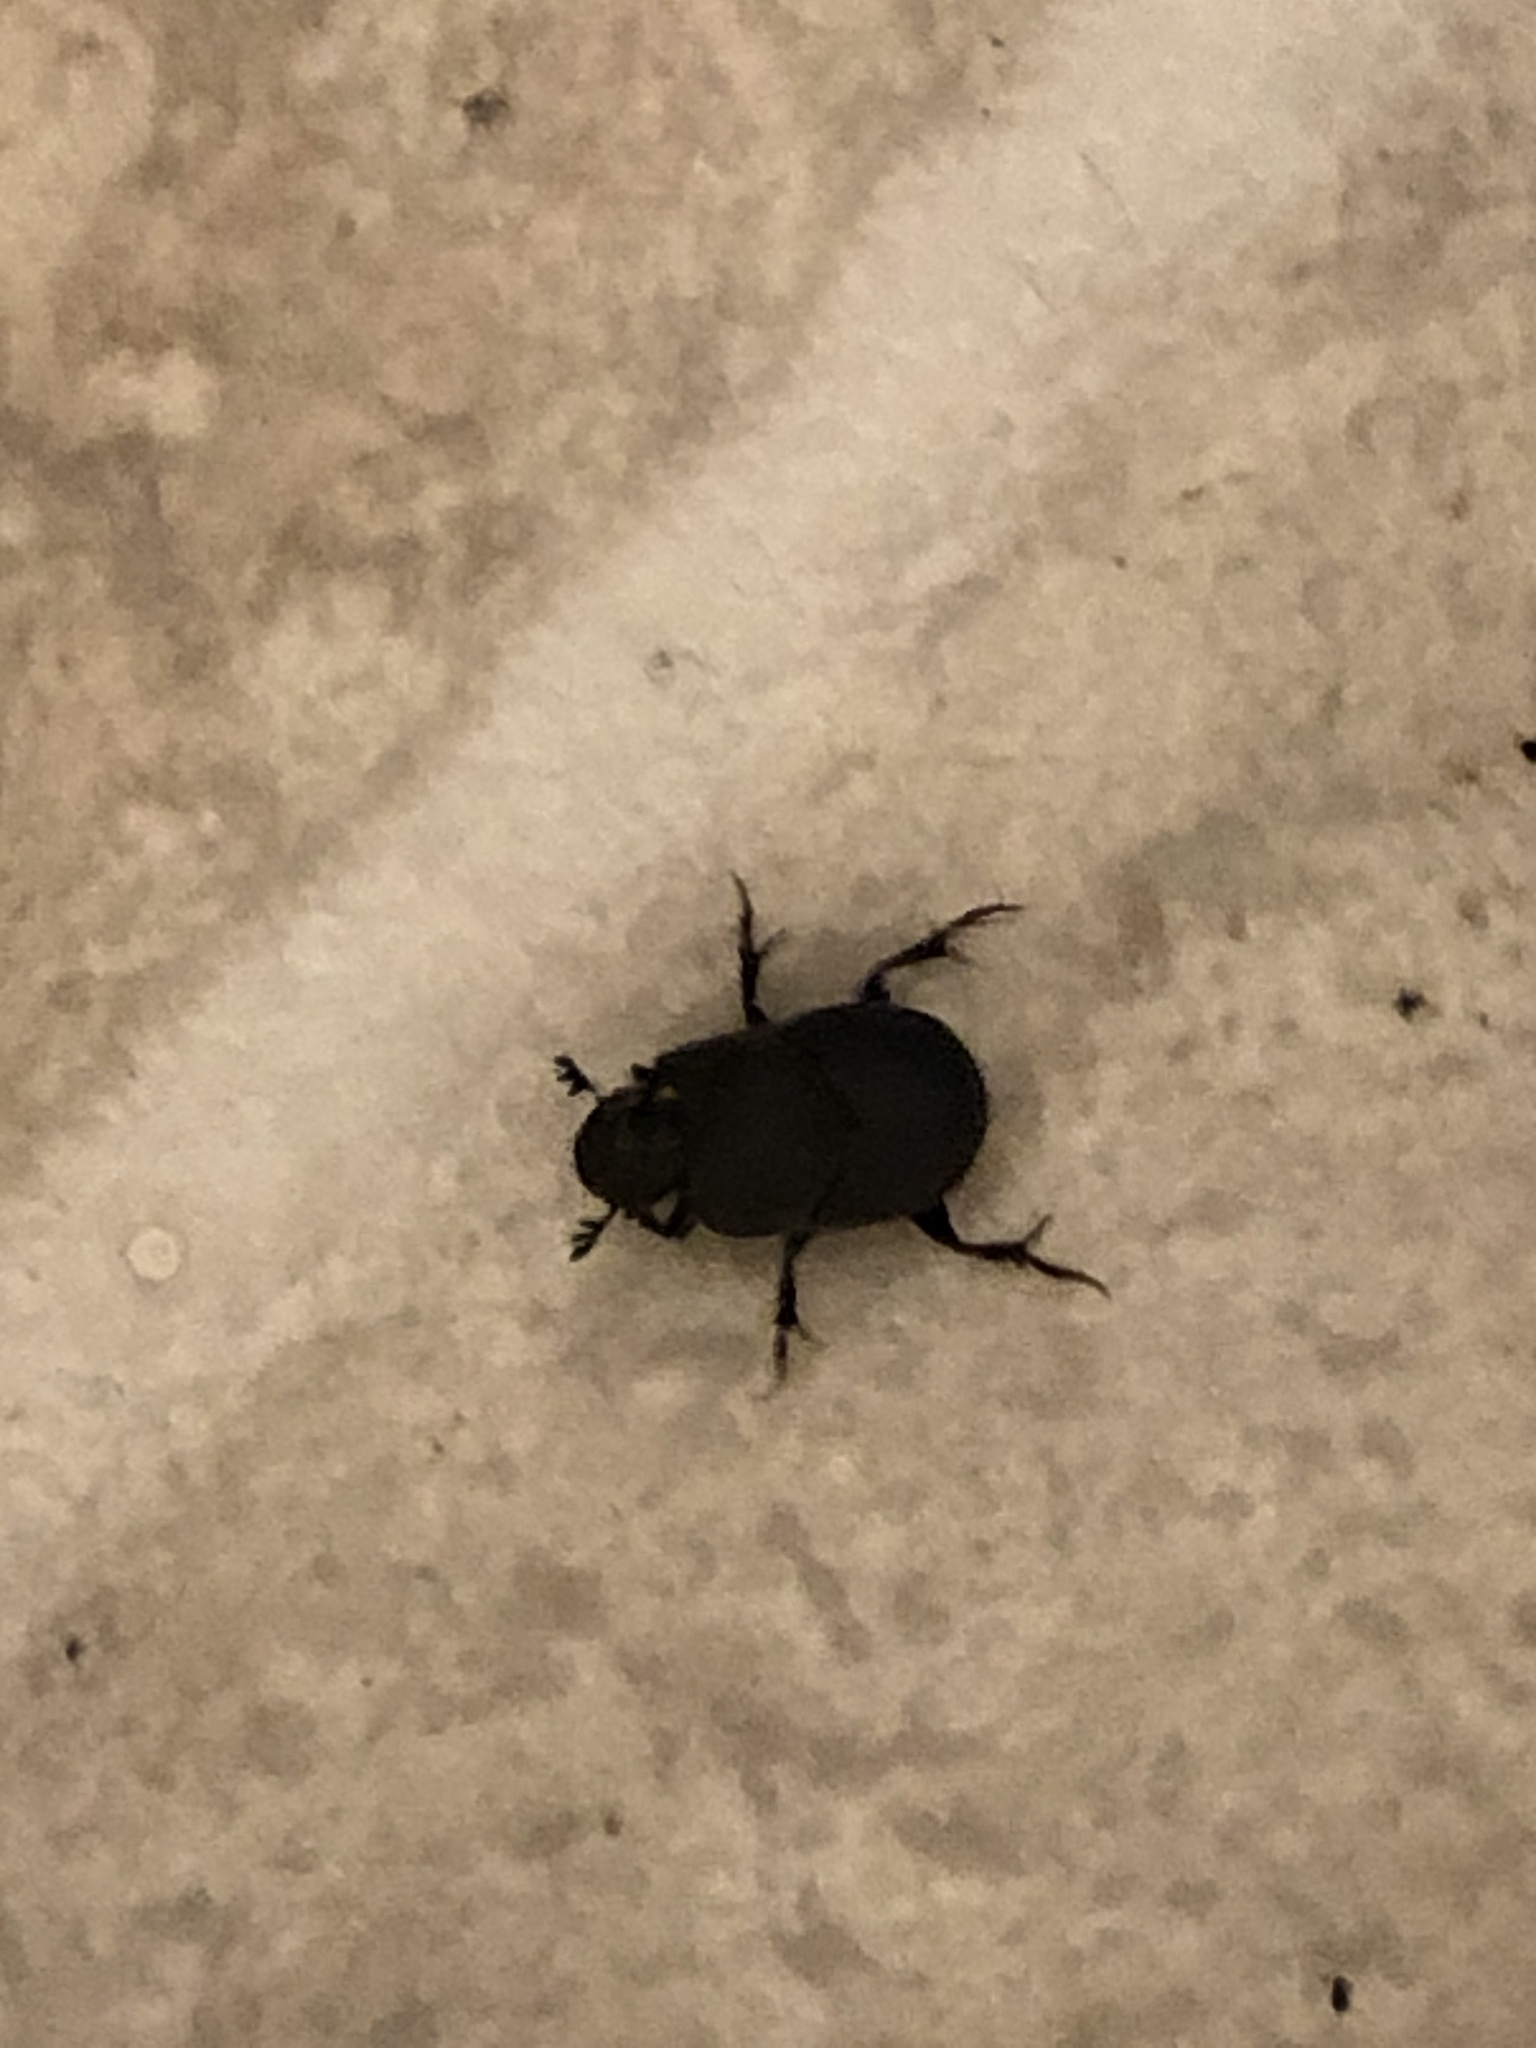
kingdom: Animalia
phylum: Arthropoda
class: Insecta
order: Coleoptera
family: Scarabaeidae
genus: Onthophagus
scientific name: Onthophagus hecate
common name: Scooped scarab
